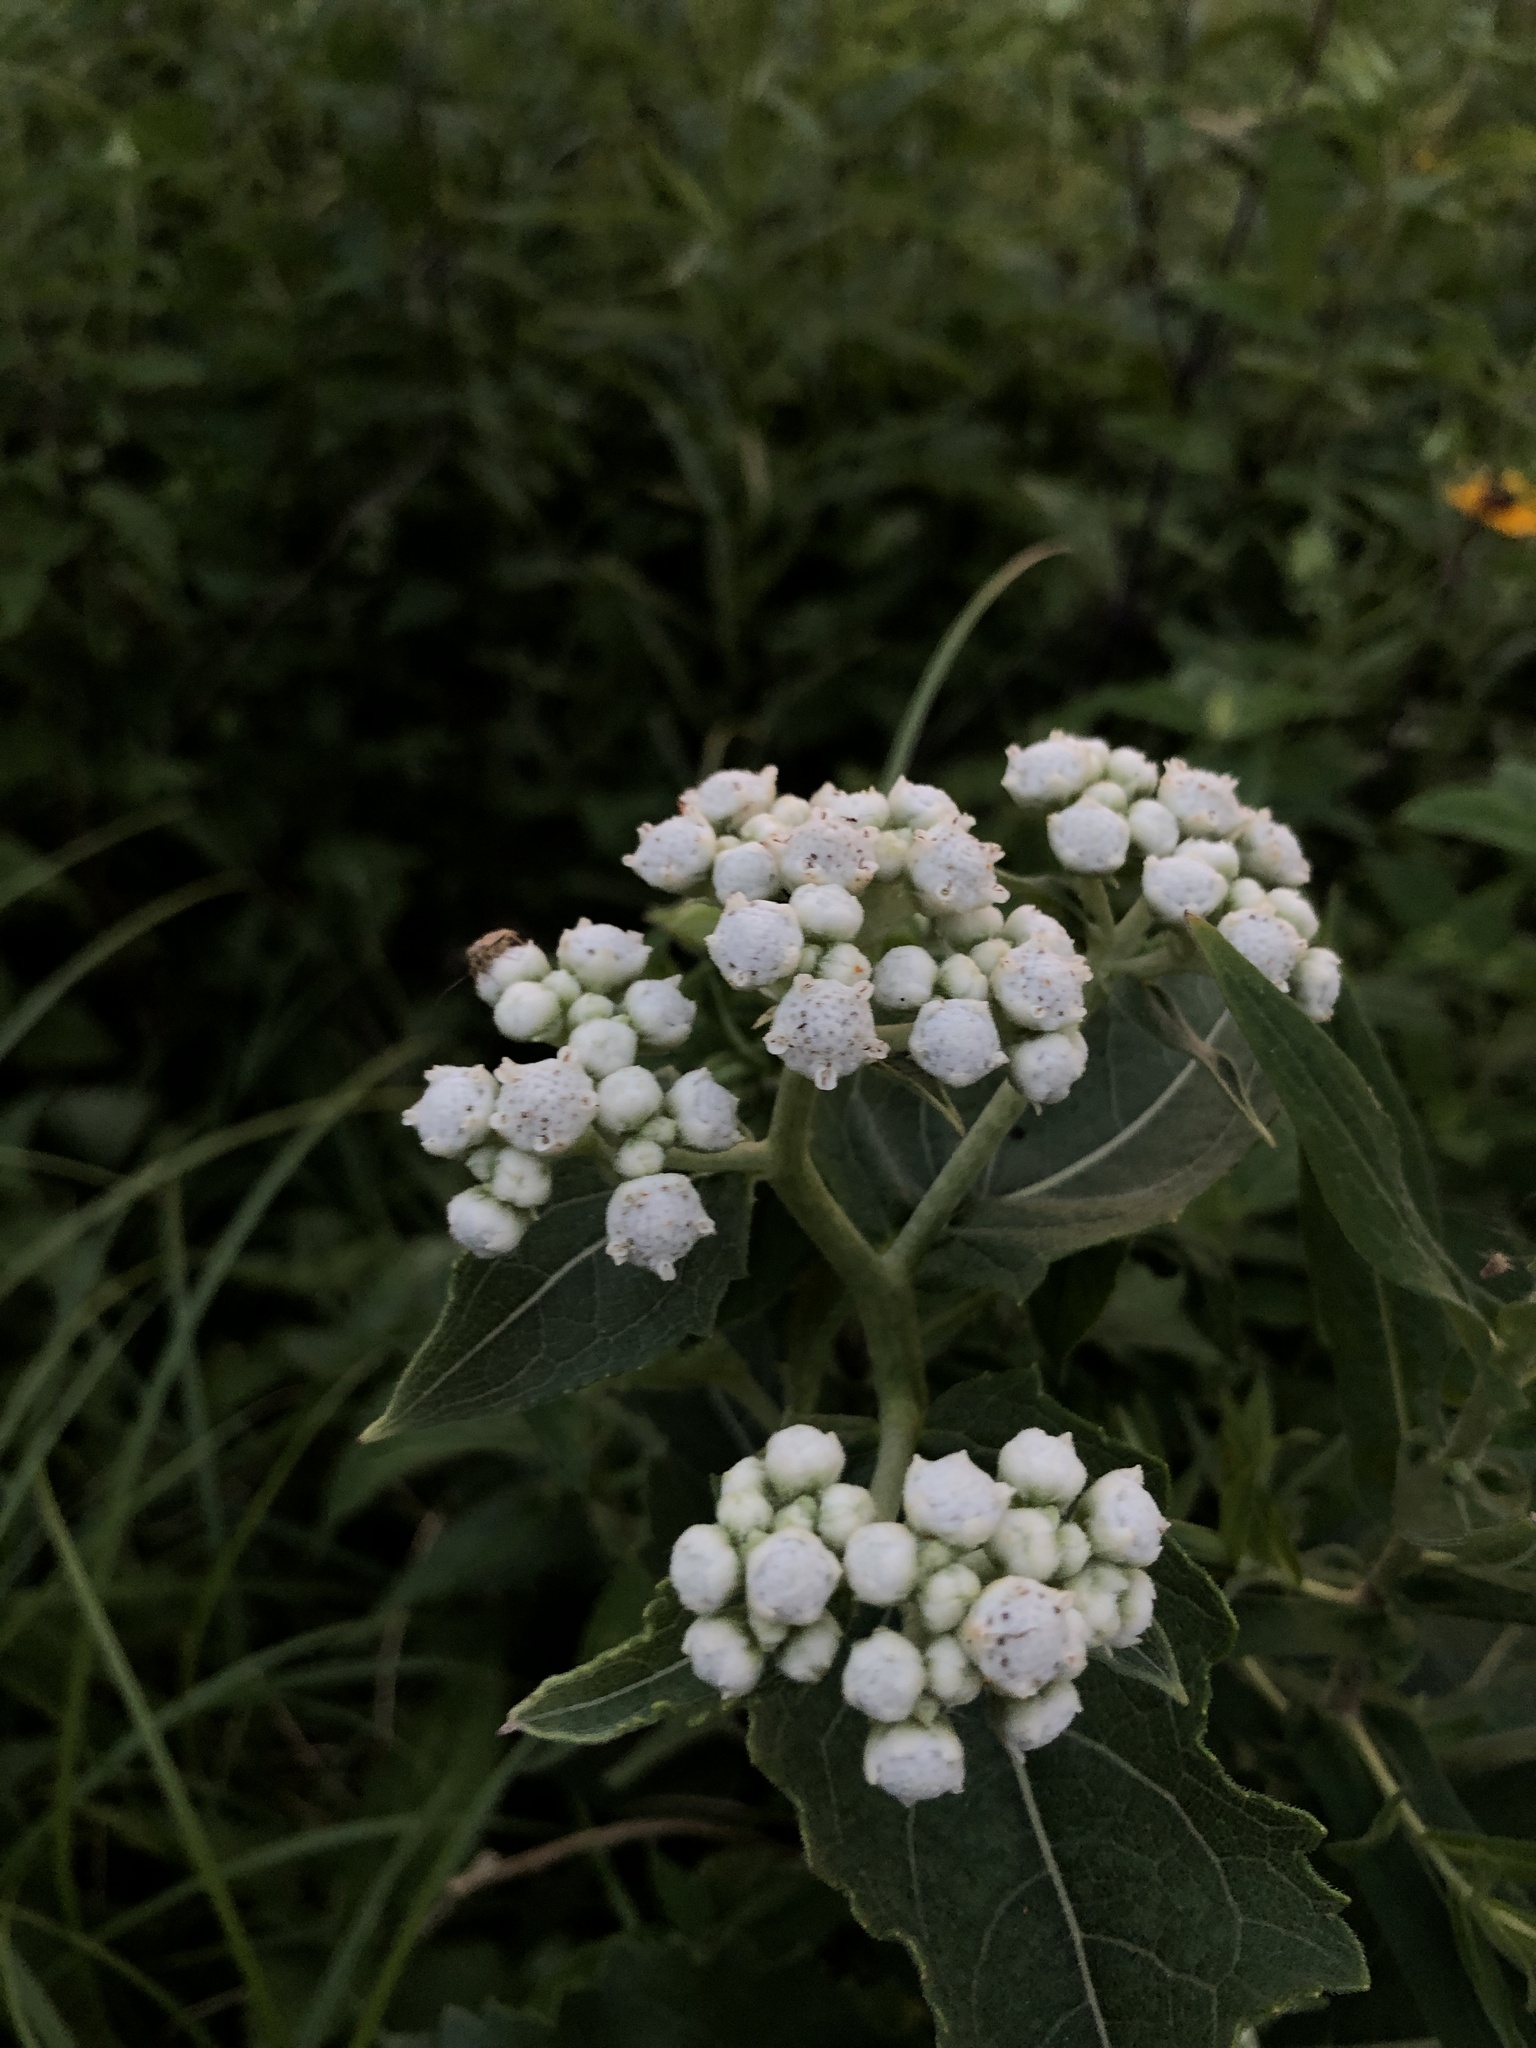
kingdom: Plantae
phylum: Tracheophyta
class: Magnoliopsida
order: Asterales
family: Asteraceae
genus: Parthenium
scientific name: Parthenium integrifolium
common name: American feverfew
